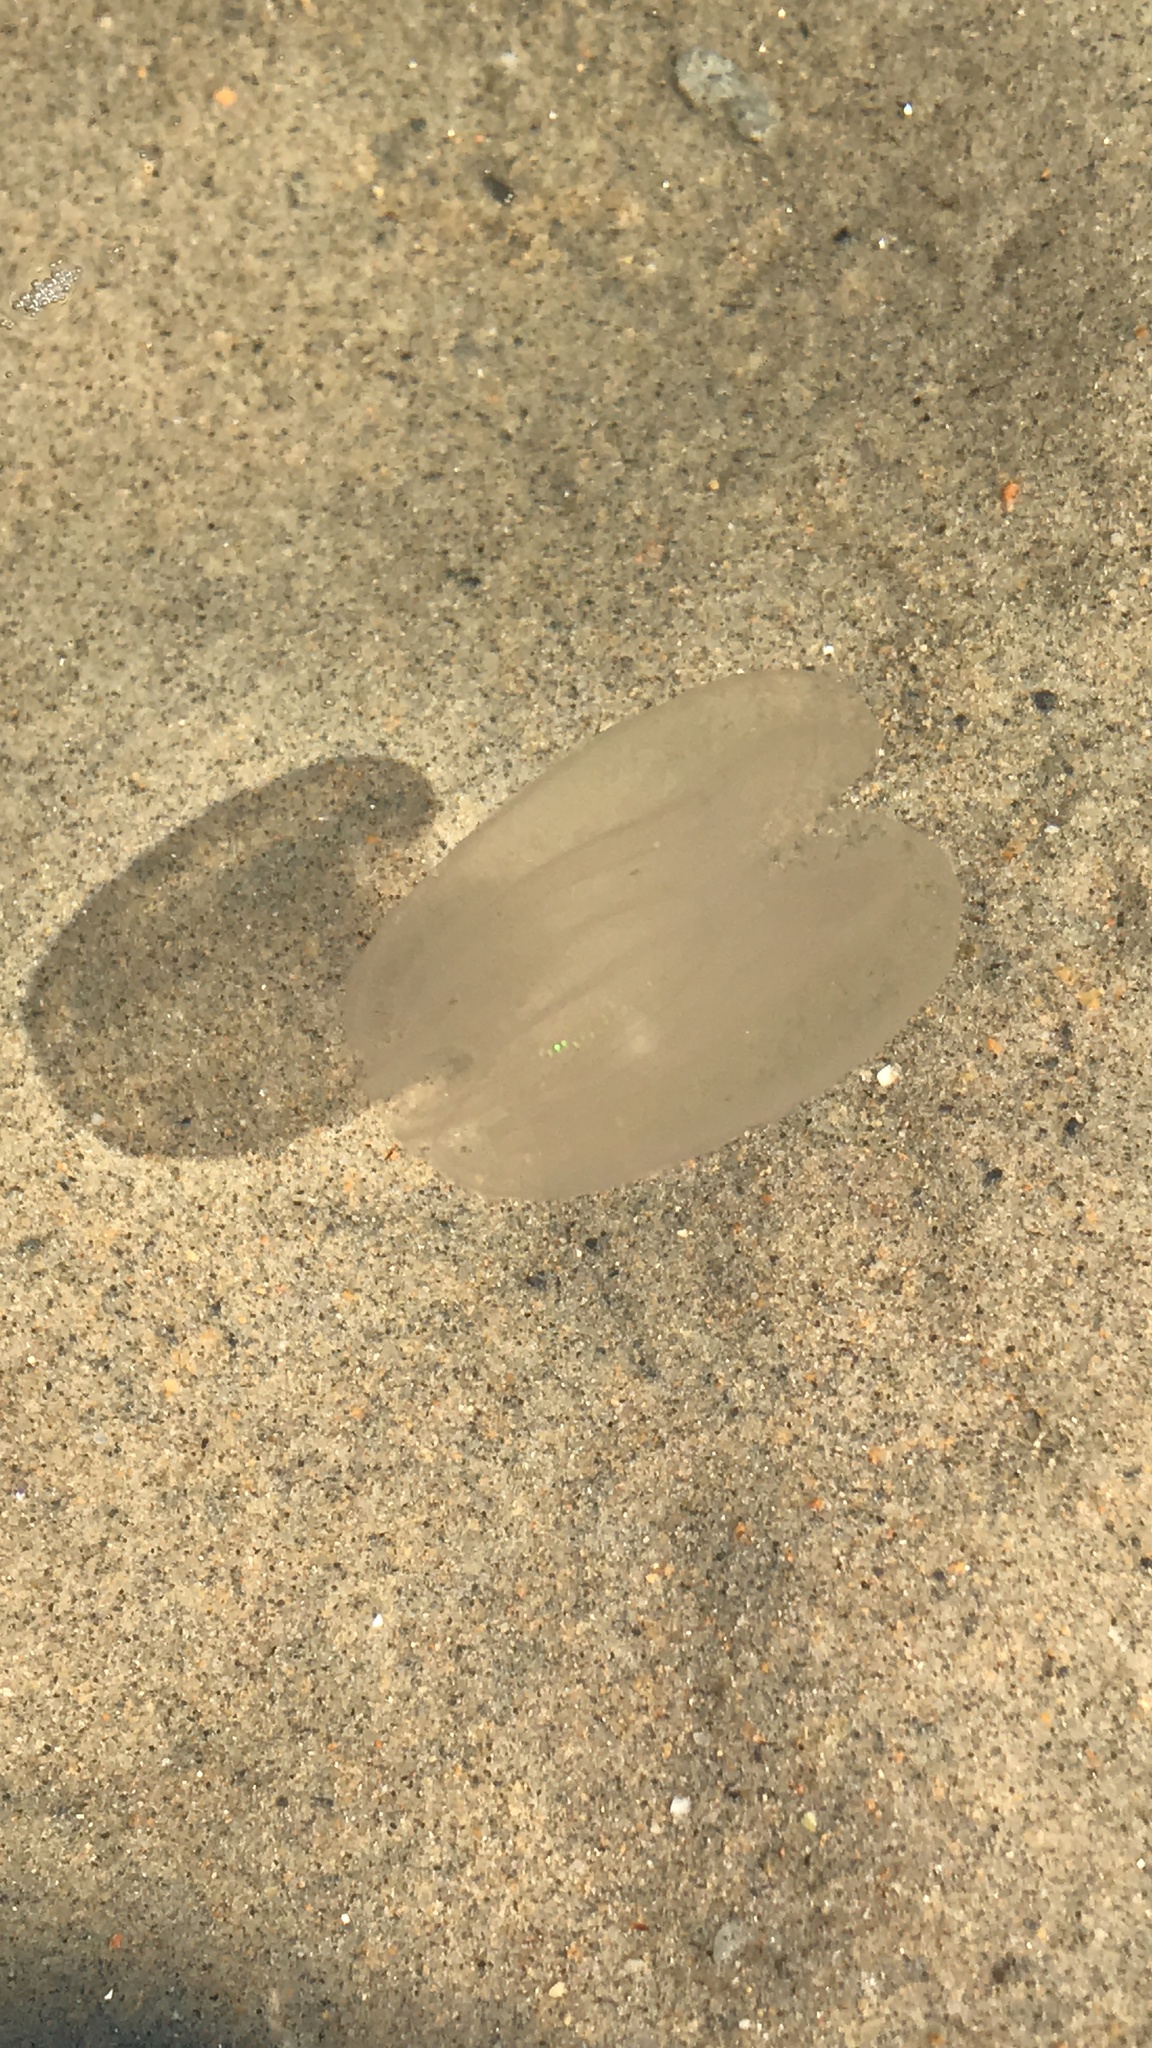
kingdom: Animalia
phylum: Ctenophora
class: Tentaculata
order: Lobata
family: Bolinopsidae
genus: Mnemiopsis
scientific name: Mnemiopsis leidyi
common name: American comb jelly
